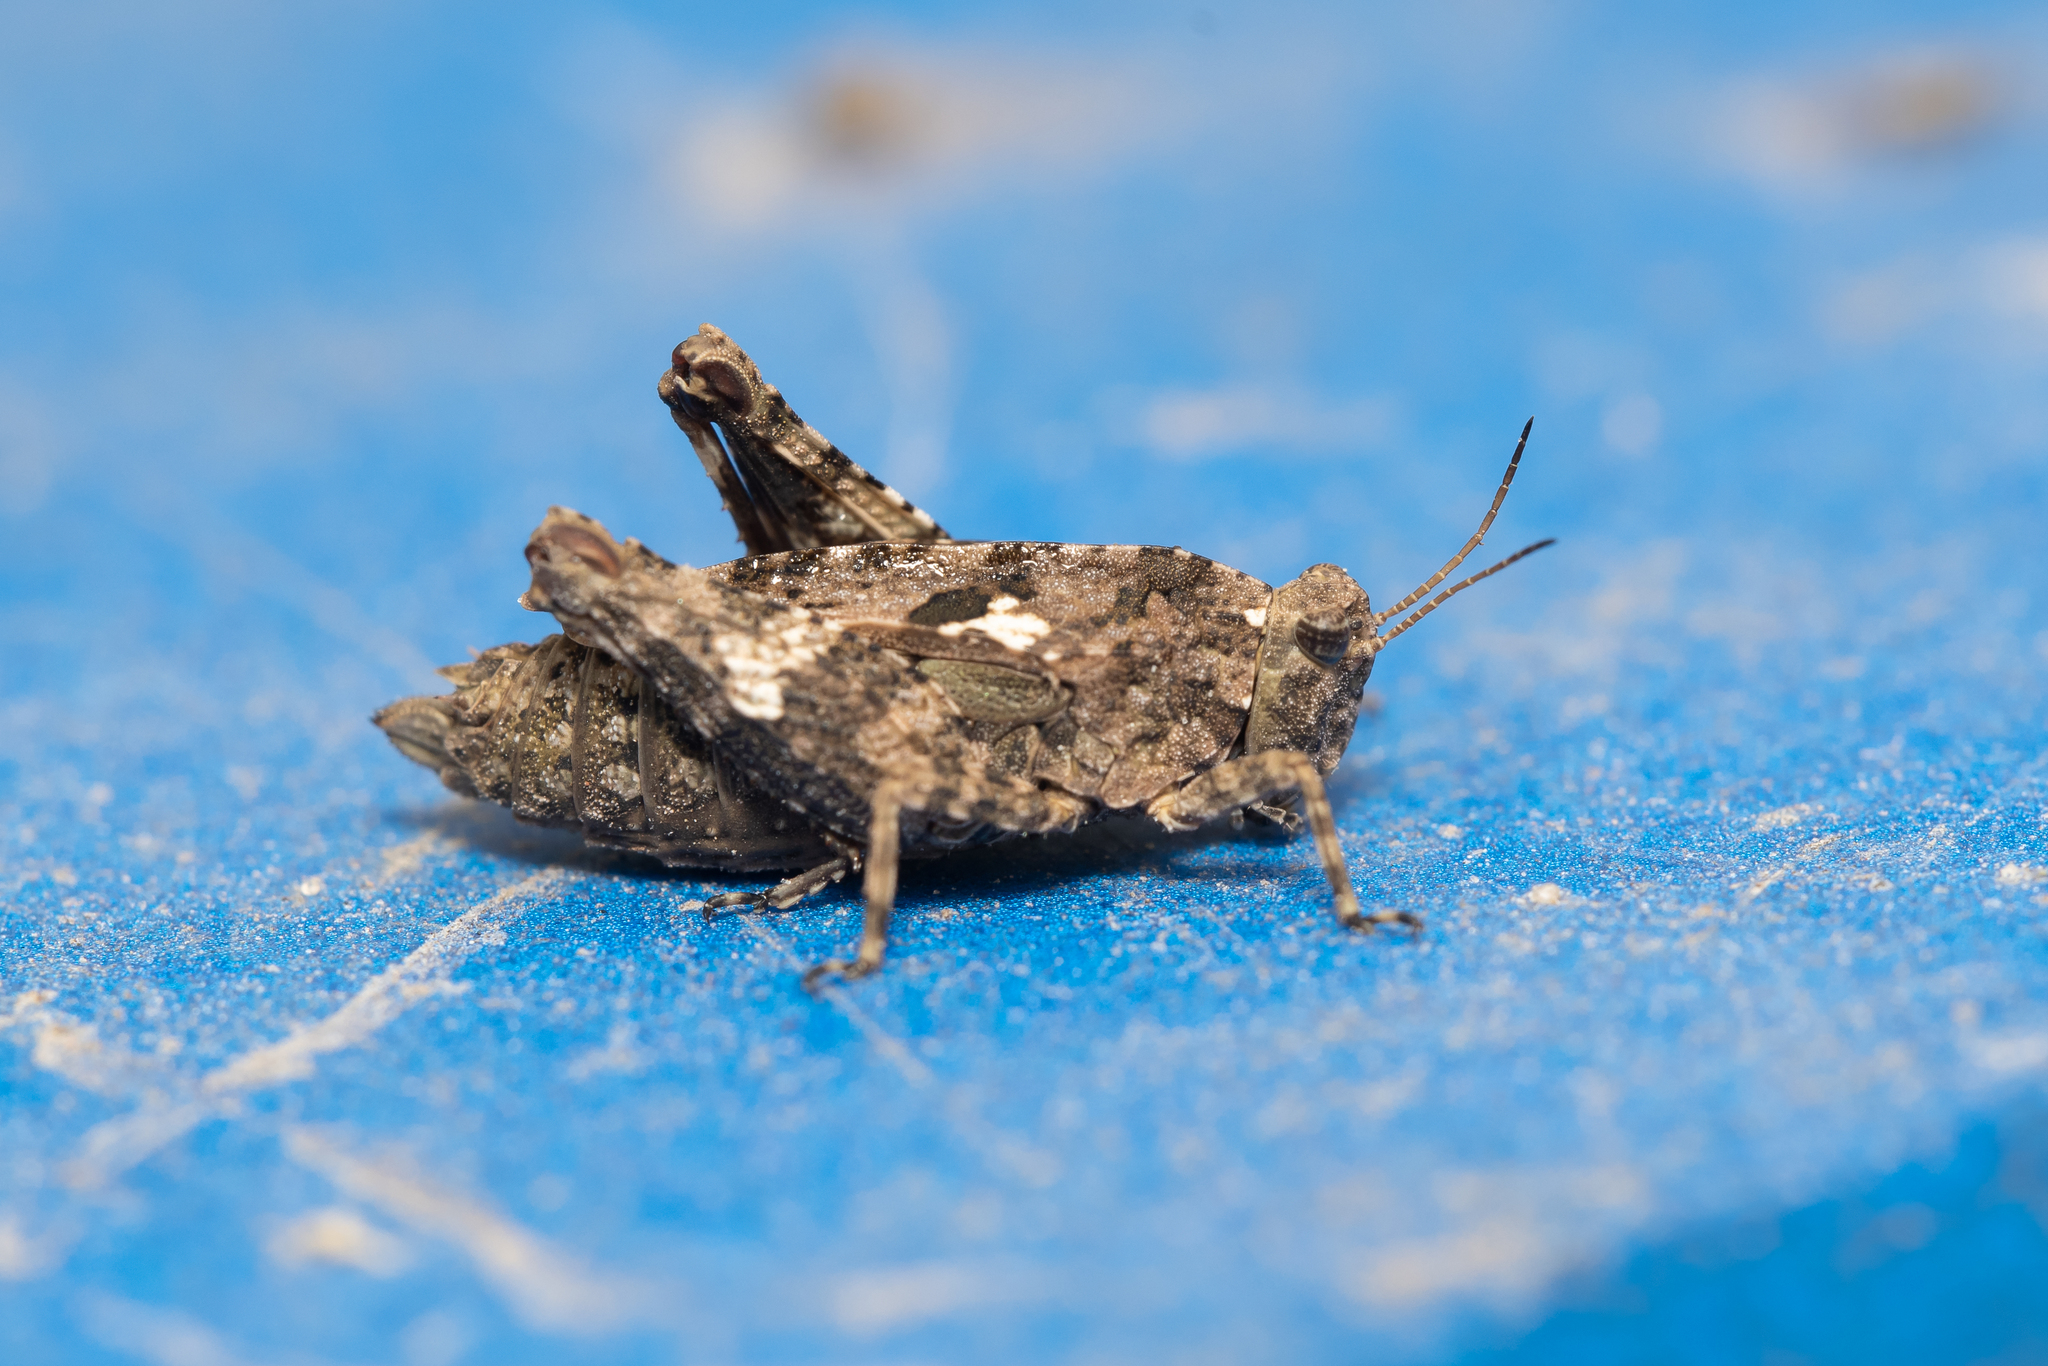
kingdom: Animalia
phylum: Arthropoda
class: Insecta
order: Orthoptera
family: Tetrigidae
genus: Tetrix
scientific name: Tetrix tenuicornis
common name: Long-horned groundhopper
